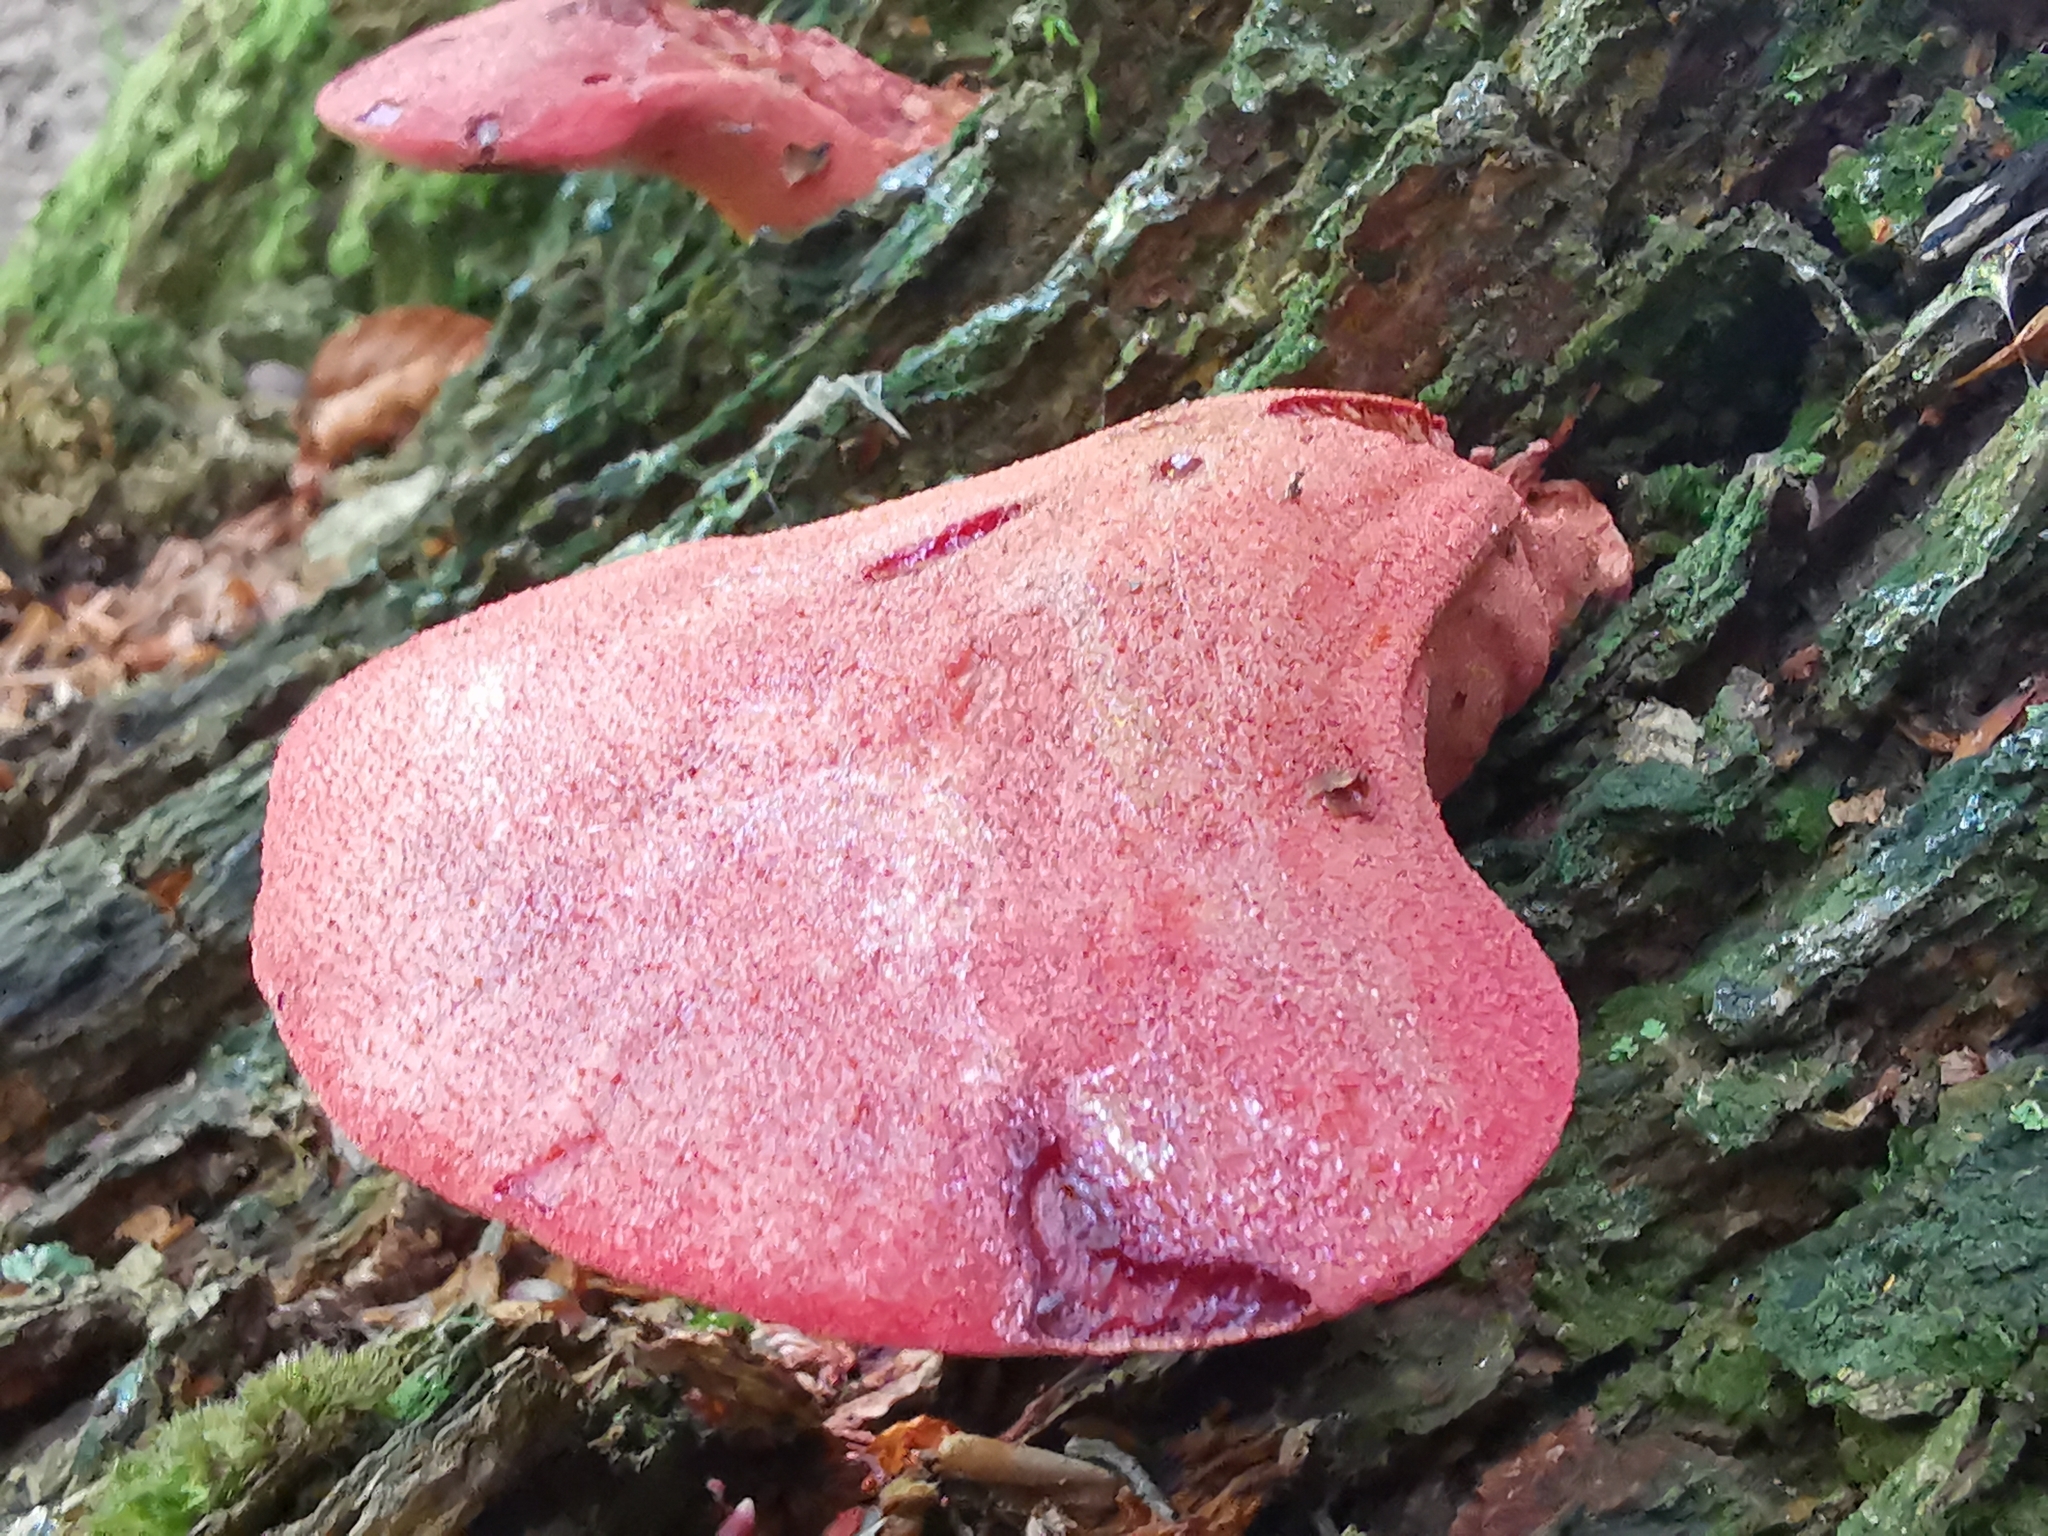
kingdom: Fungi
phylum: Basidiomycota
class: Agaricomycetes
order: Agaricales
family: Fistulinaceae
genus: Fistulina
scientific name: Fistulina hepatica
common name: Beef-steak fungus
